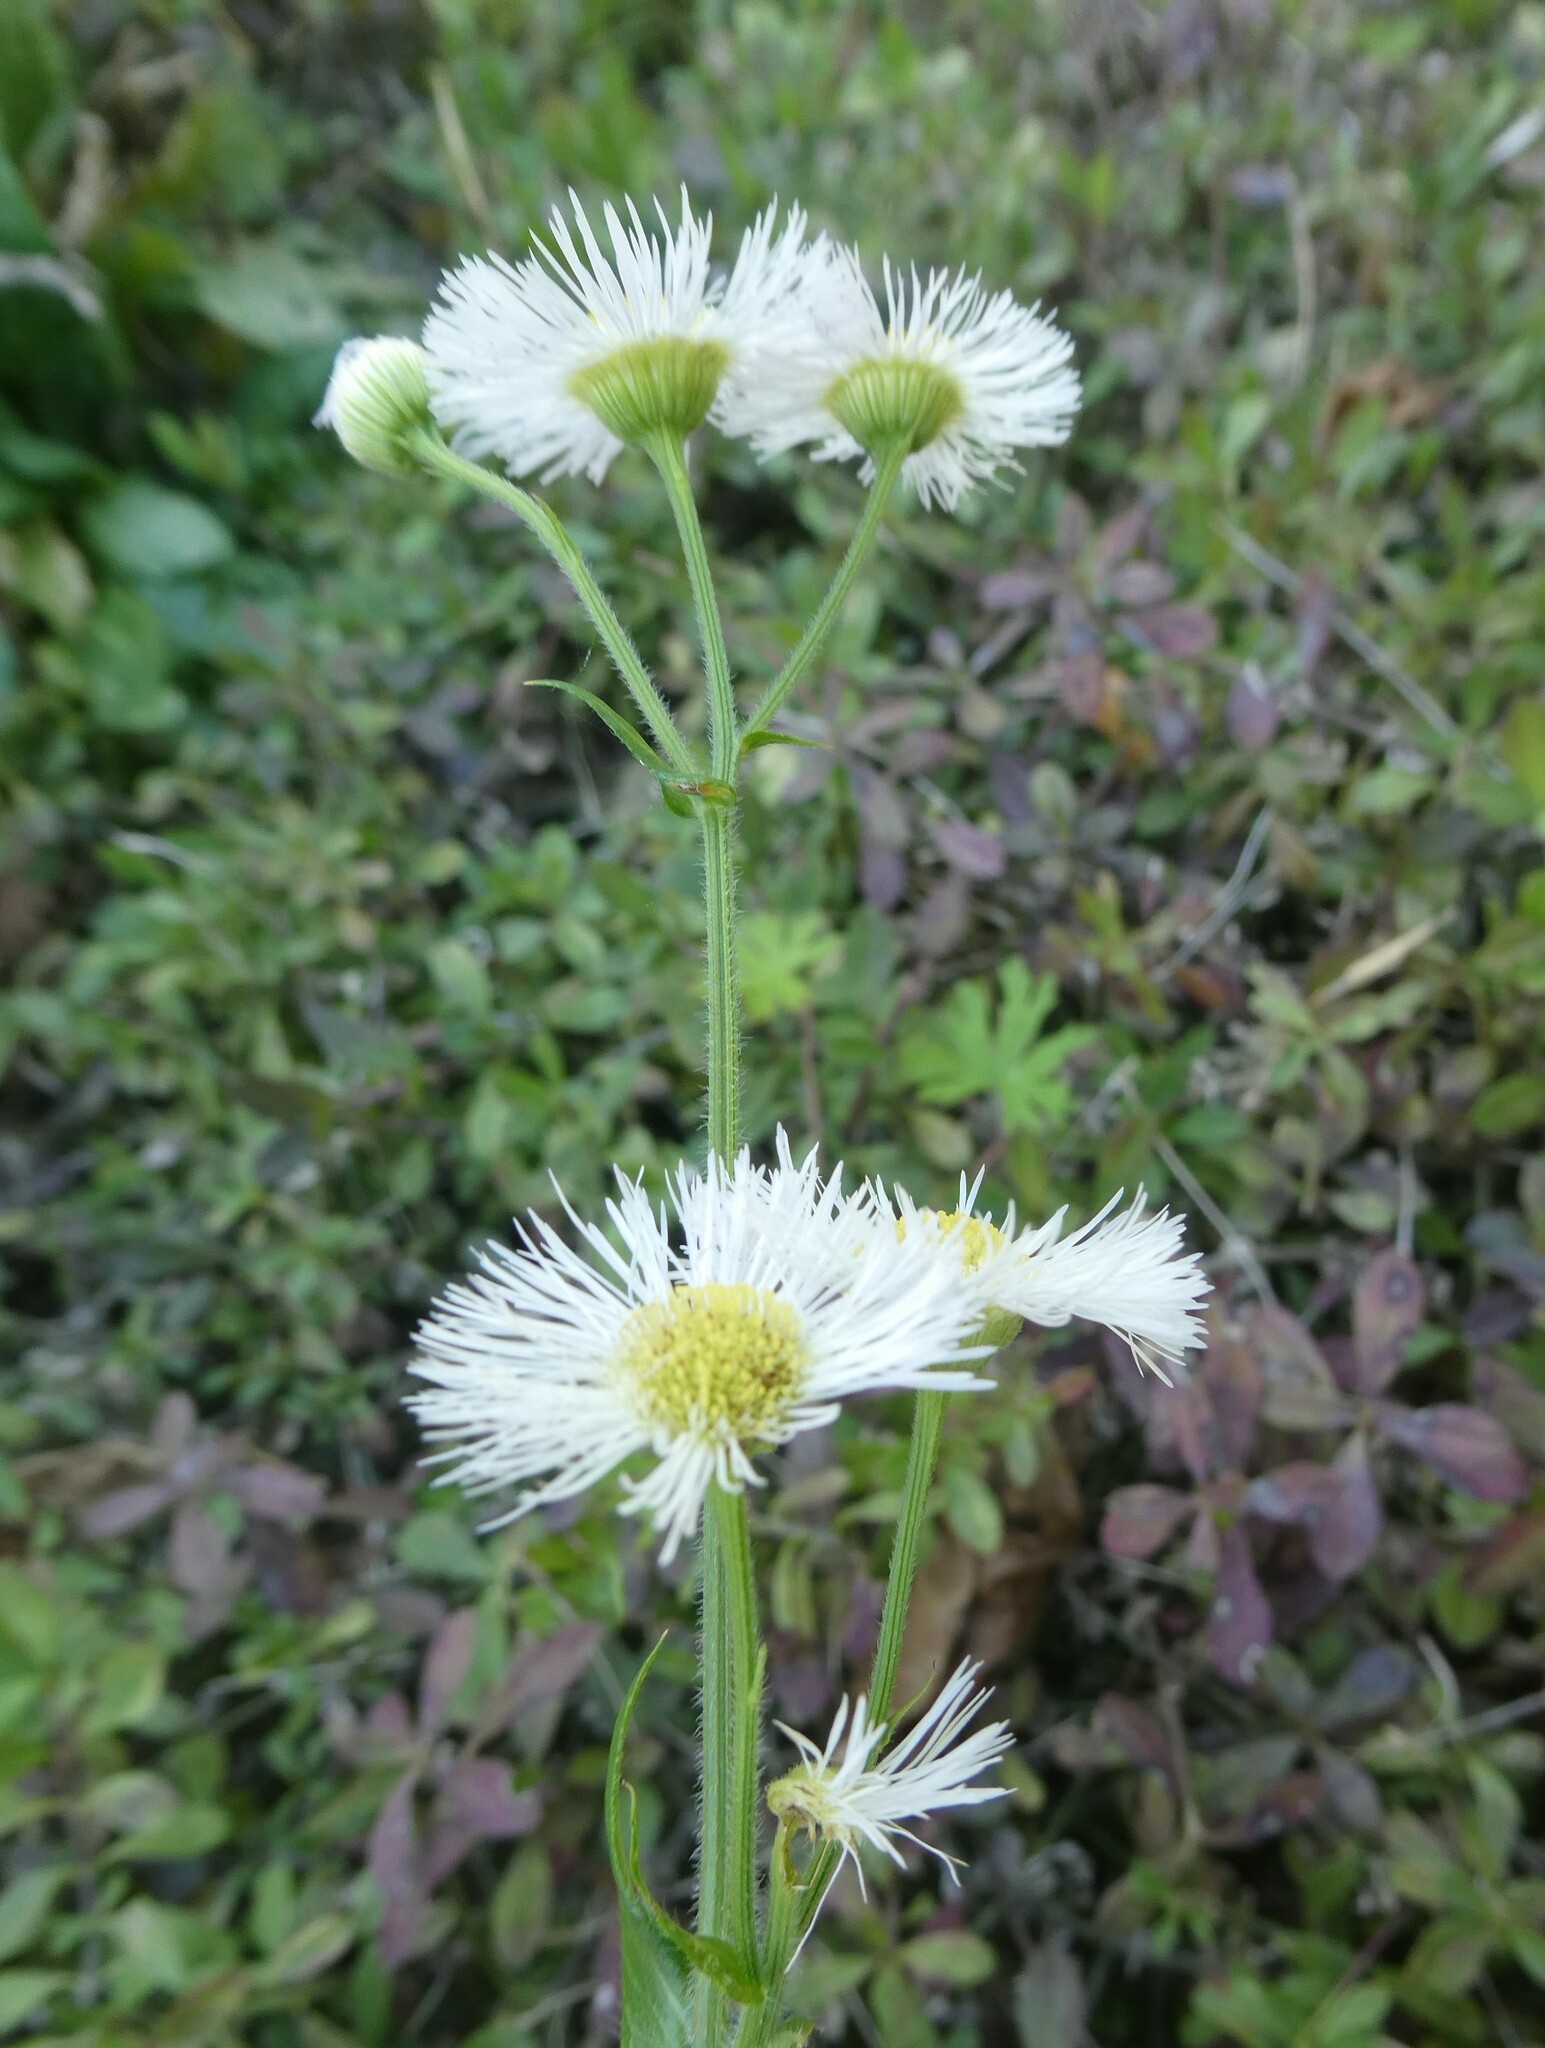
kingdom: Plantae
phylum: Tracheophyta
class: Magnoliopsida
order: Asterales
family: Asteraceae
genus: Erigeron
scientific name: Erigeron philadelphicus
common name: Robin's-plantain
